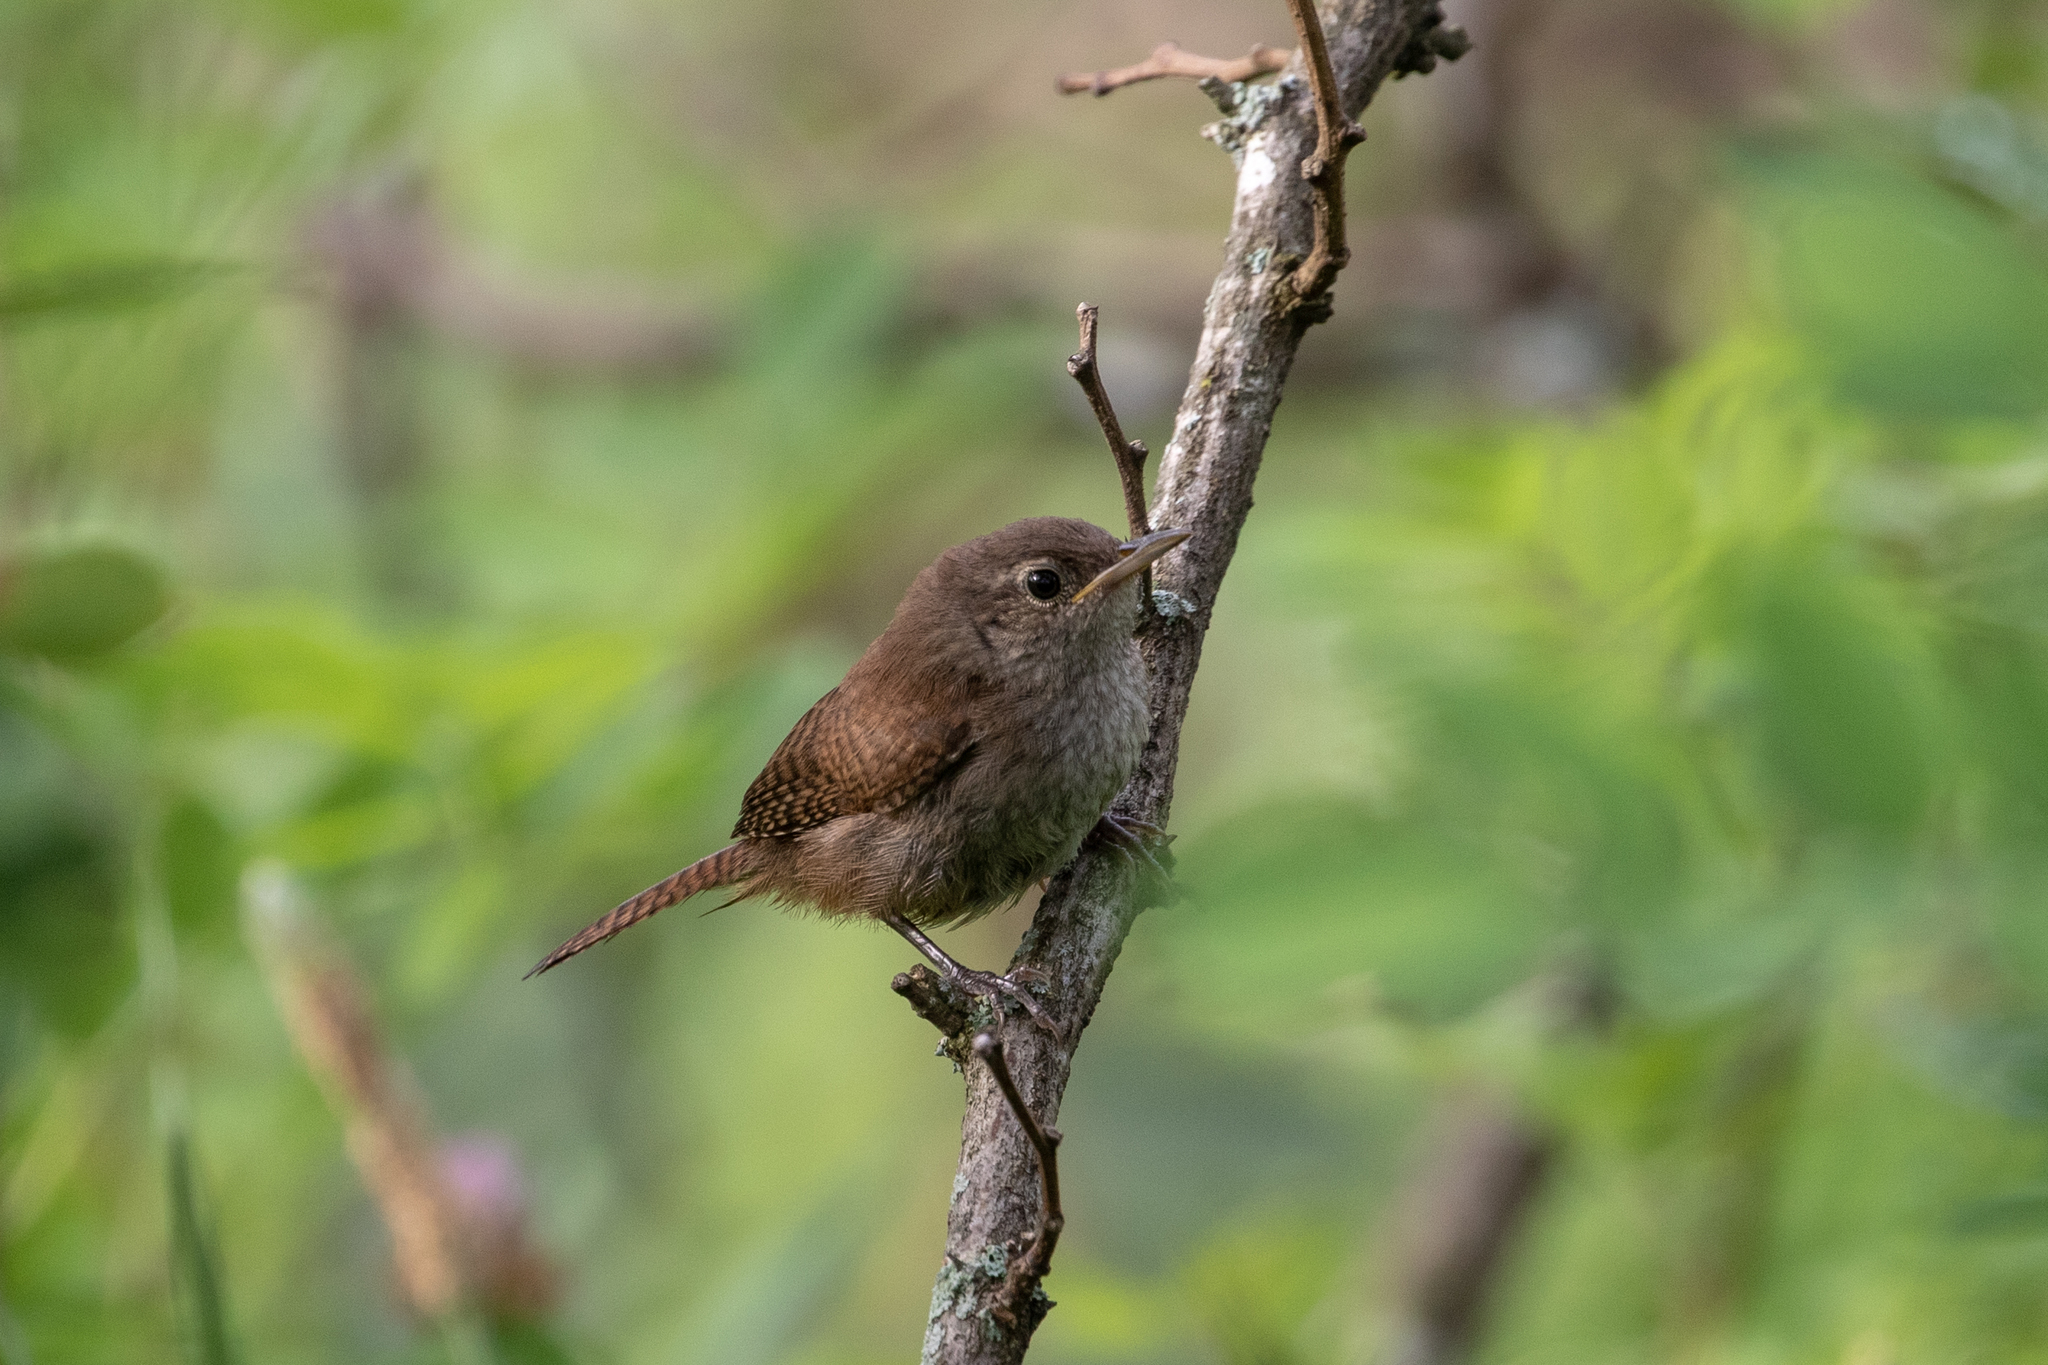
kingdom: Animalia
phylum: Chordata
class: Aves
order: Passeriformes
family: Troglodytidae
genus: Troglodytes
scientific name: Troglodytes aedon
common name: House wren
